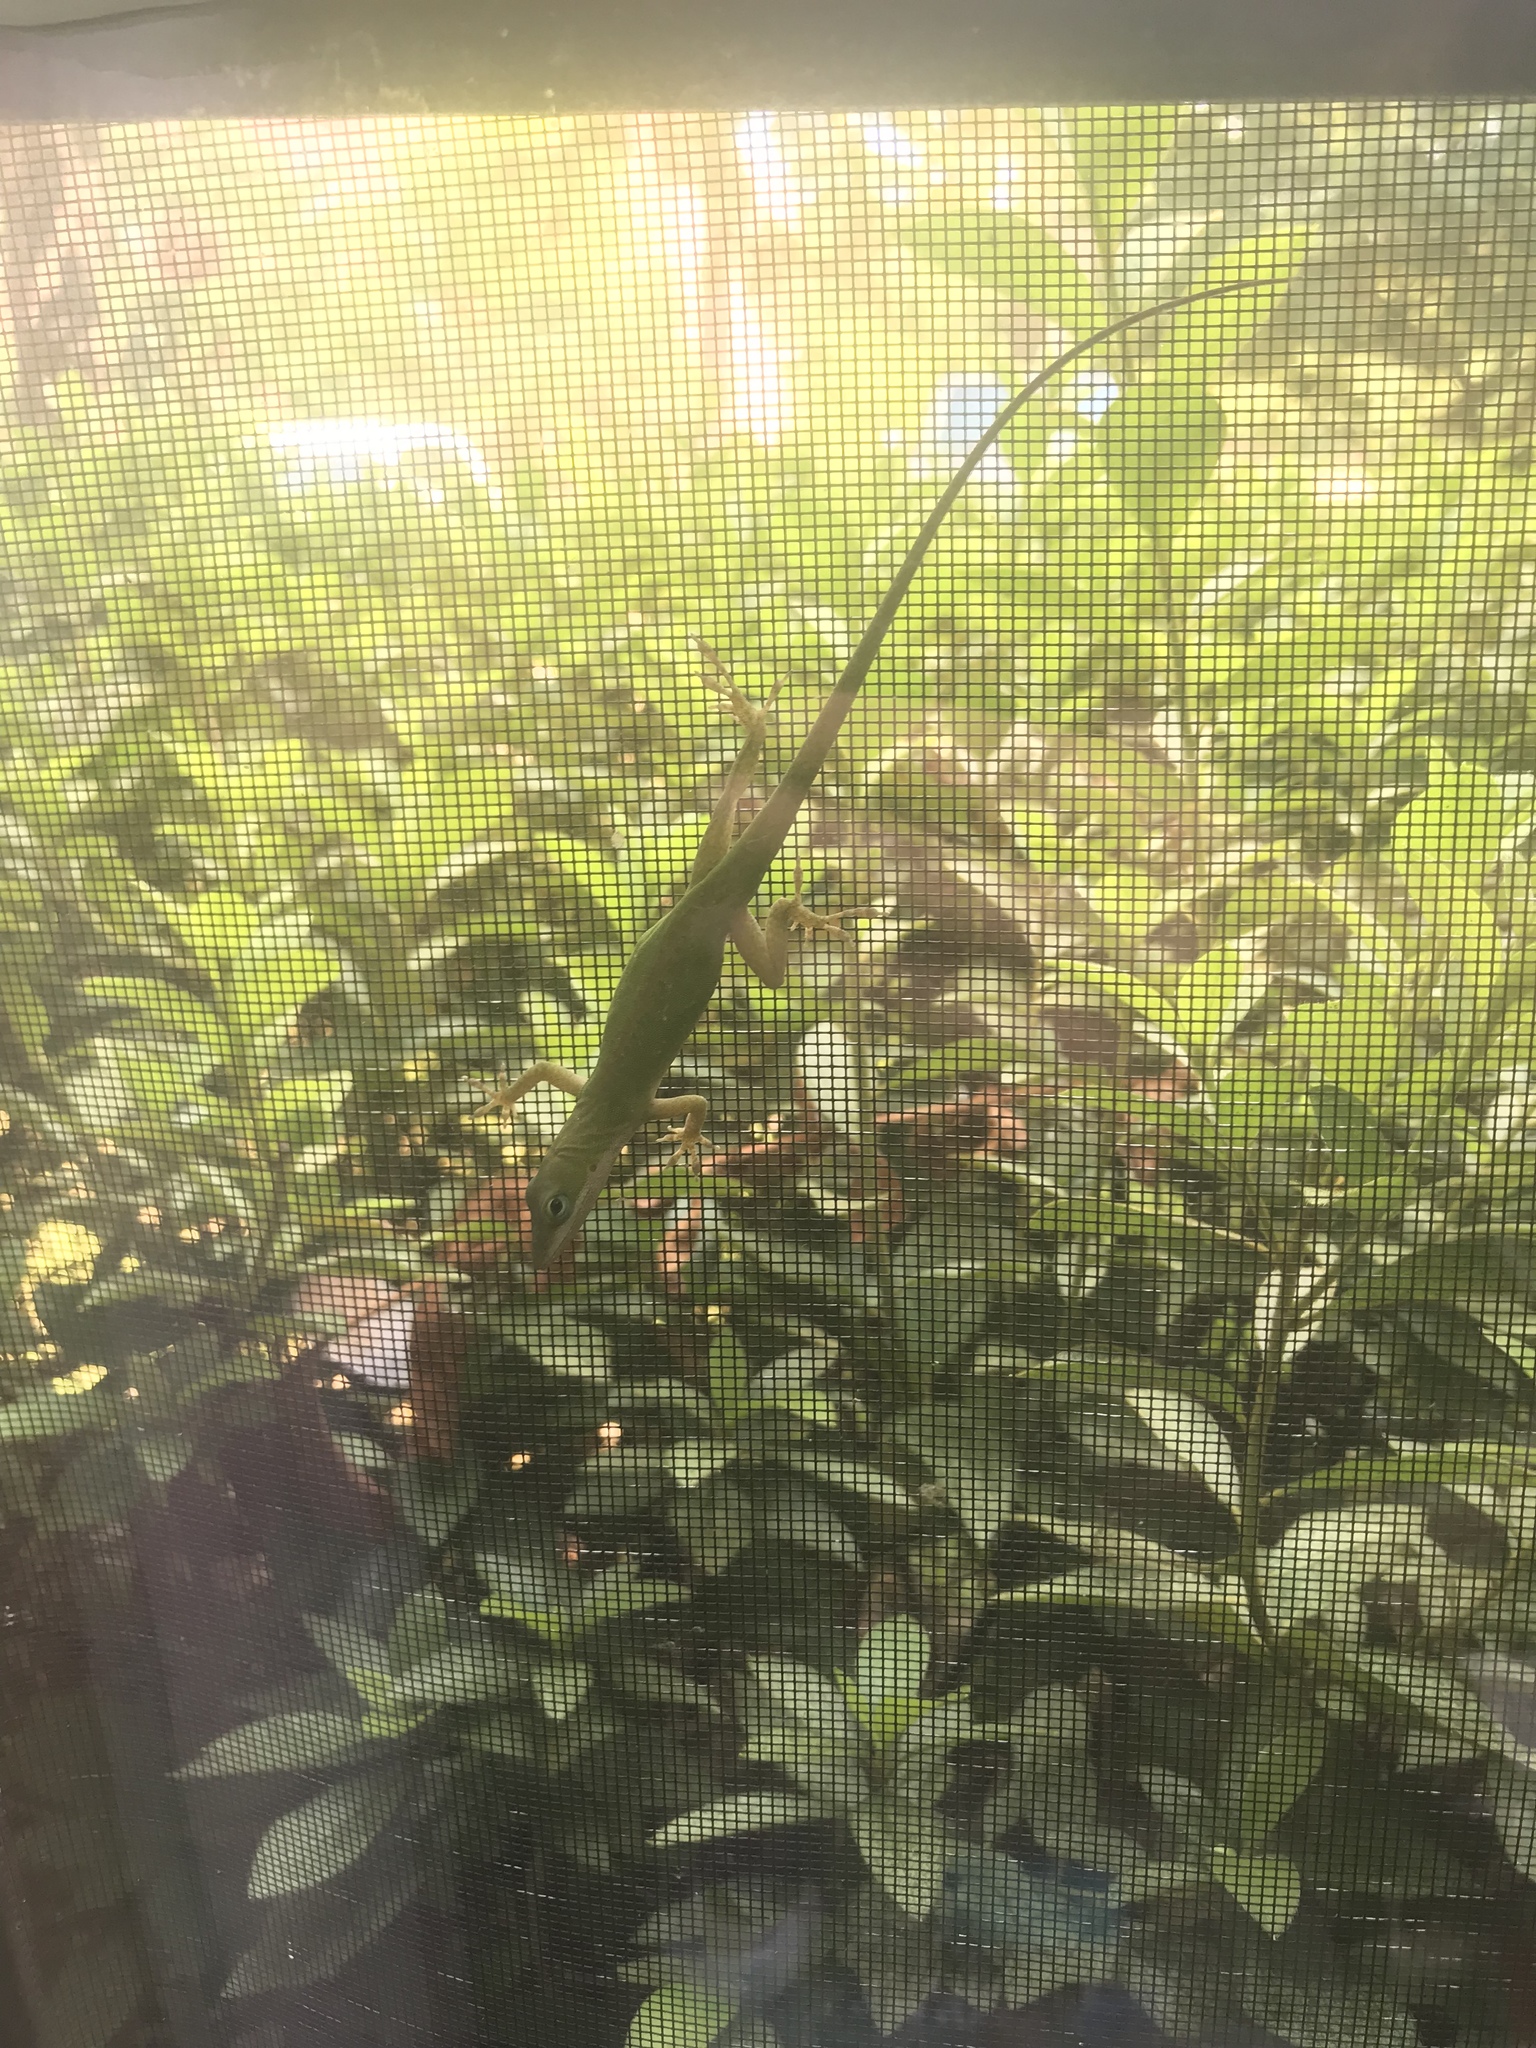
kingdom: Animalia
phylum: Chordata
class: Squamata
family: Dactyloidae
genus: Anolis
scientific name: Anolis carolinensis
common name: Green anole
